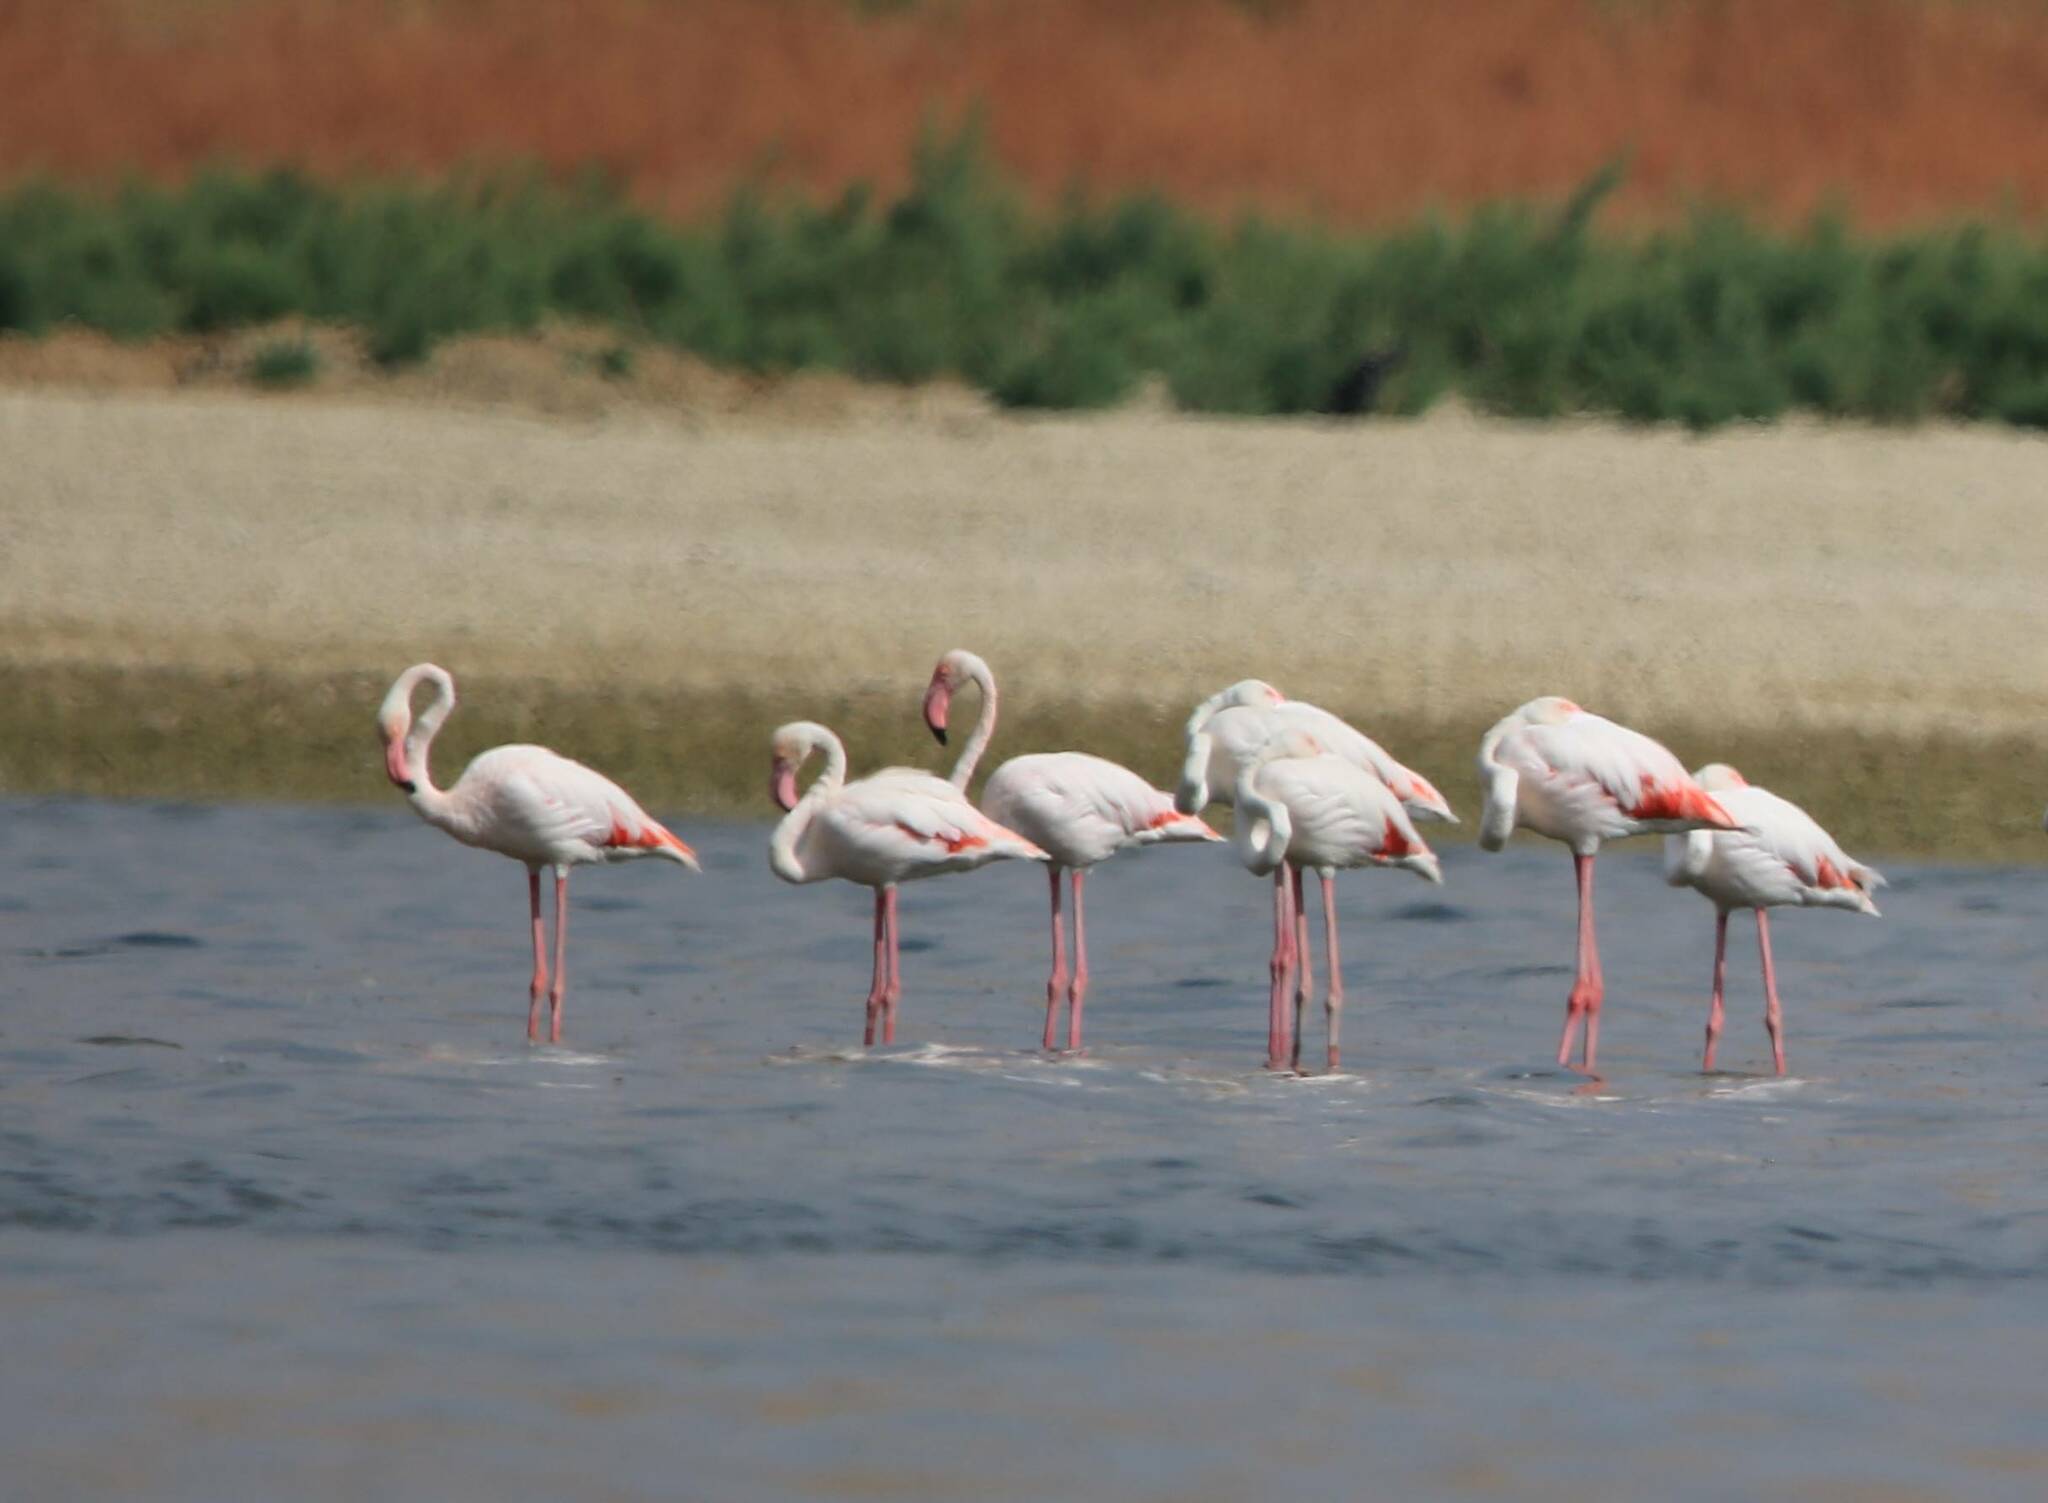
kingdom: Animalia
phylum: Chordata
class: Aves
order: Phoenicopteriformes
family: Phoenicopteridae
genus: Phoenicopterus
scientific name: Phoenicopterus roseus
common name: Greater flamingo
